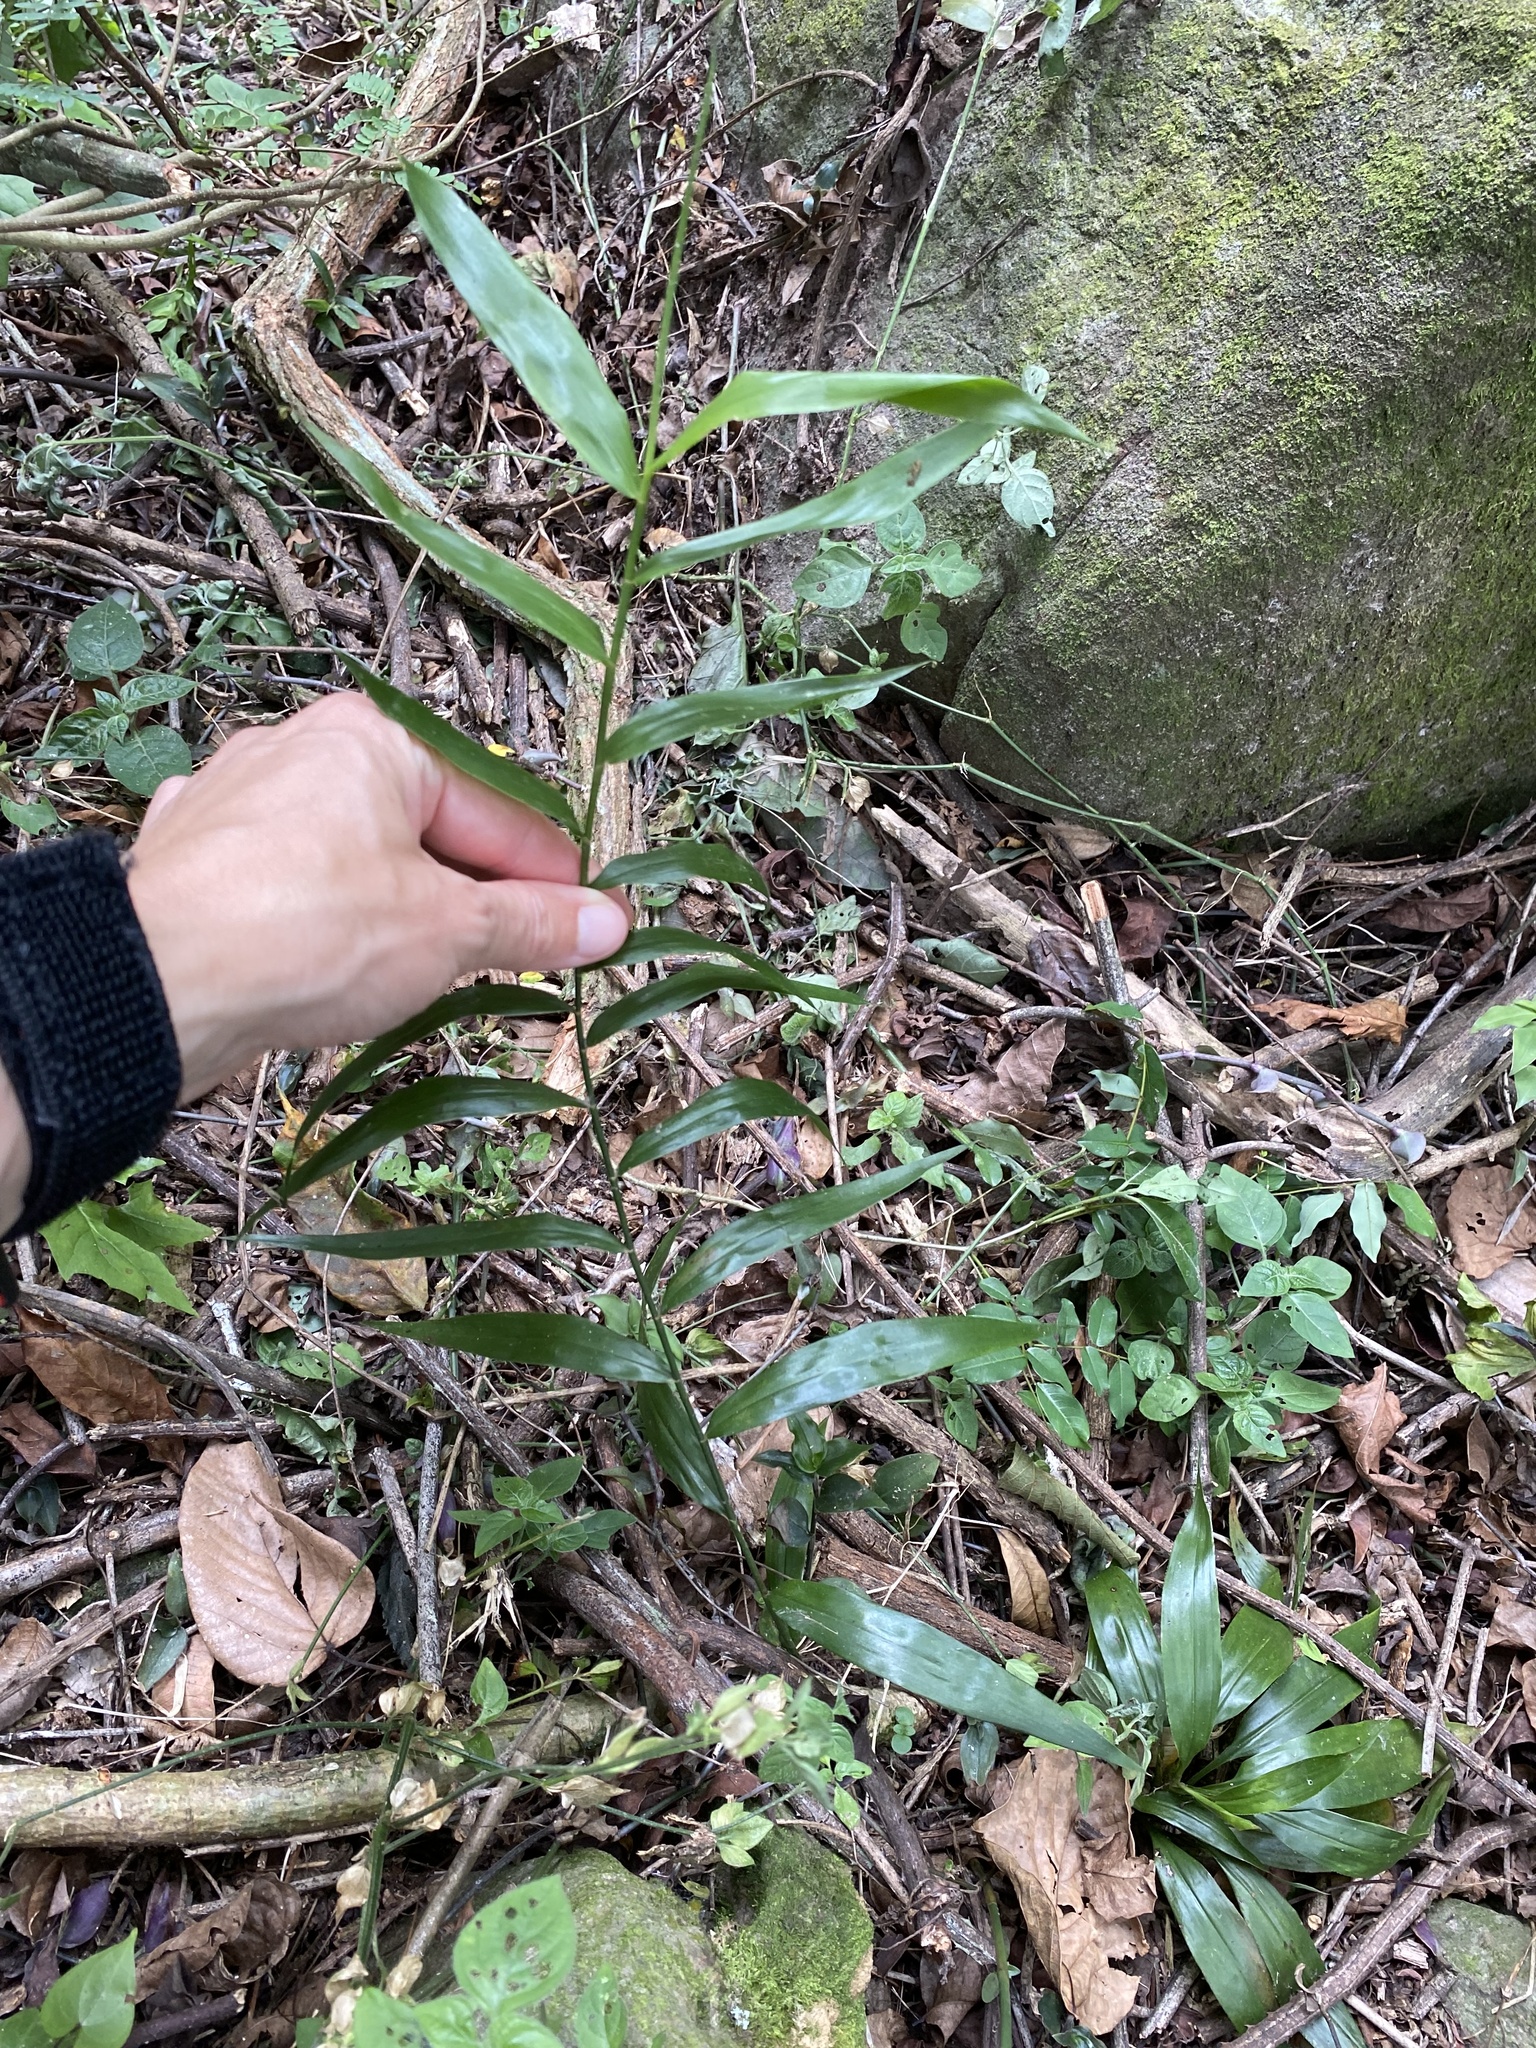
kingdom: Plantae
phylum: Tracheophyta
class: Liliopsida
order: Poales
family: Flagellariaceae
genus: Flagellaria
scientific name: Flagellaria guineensis
